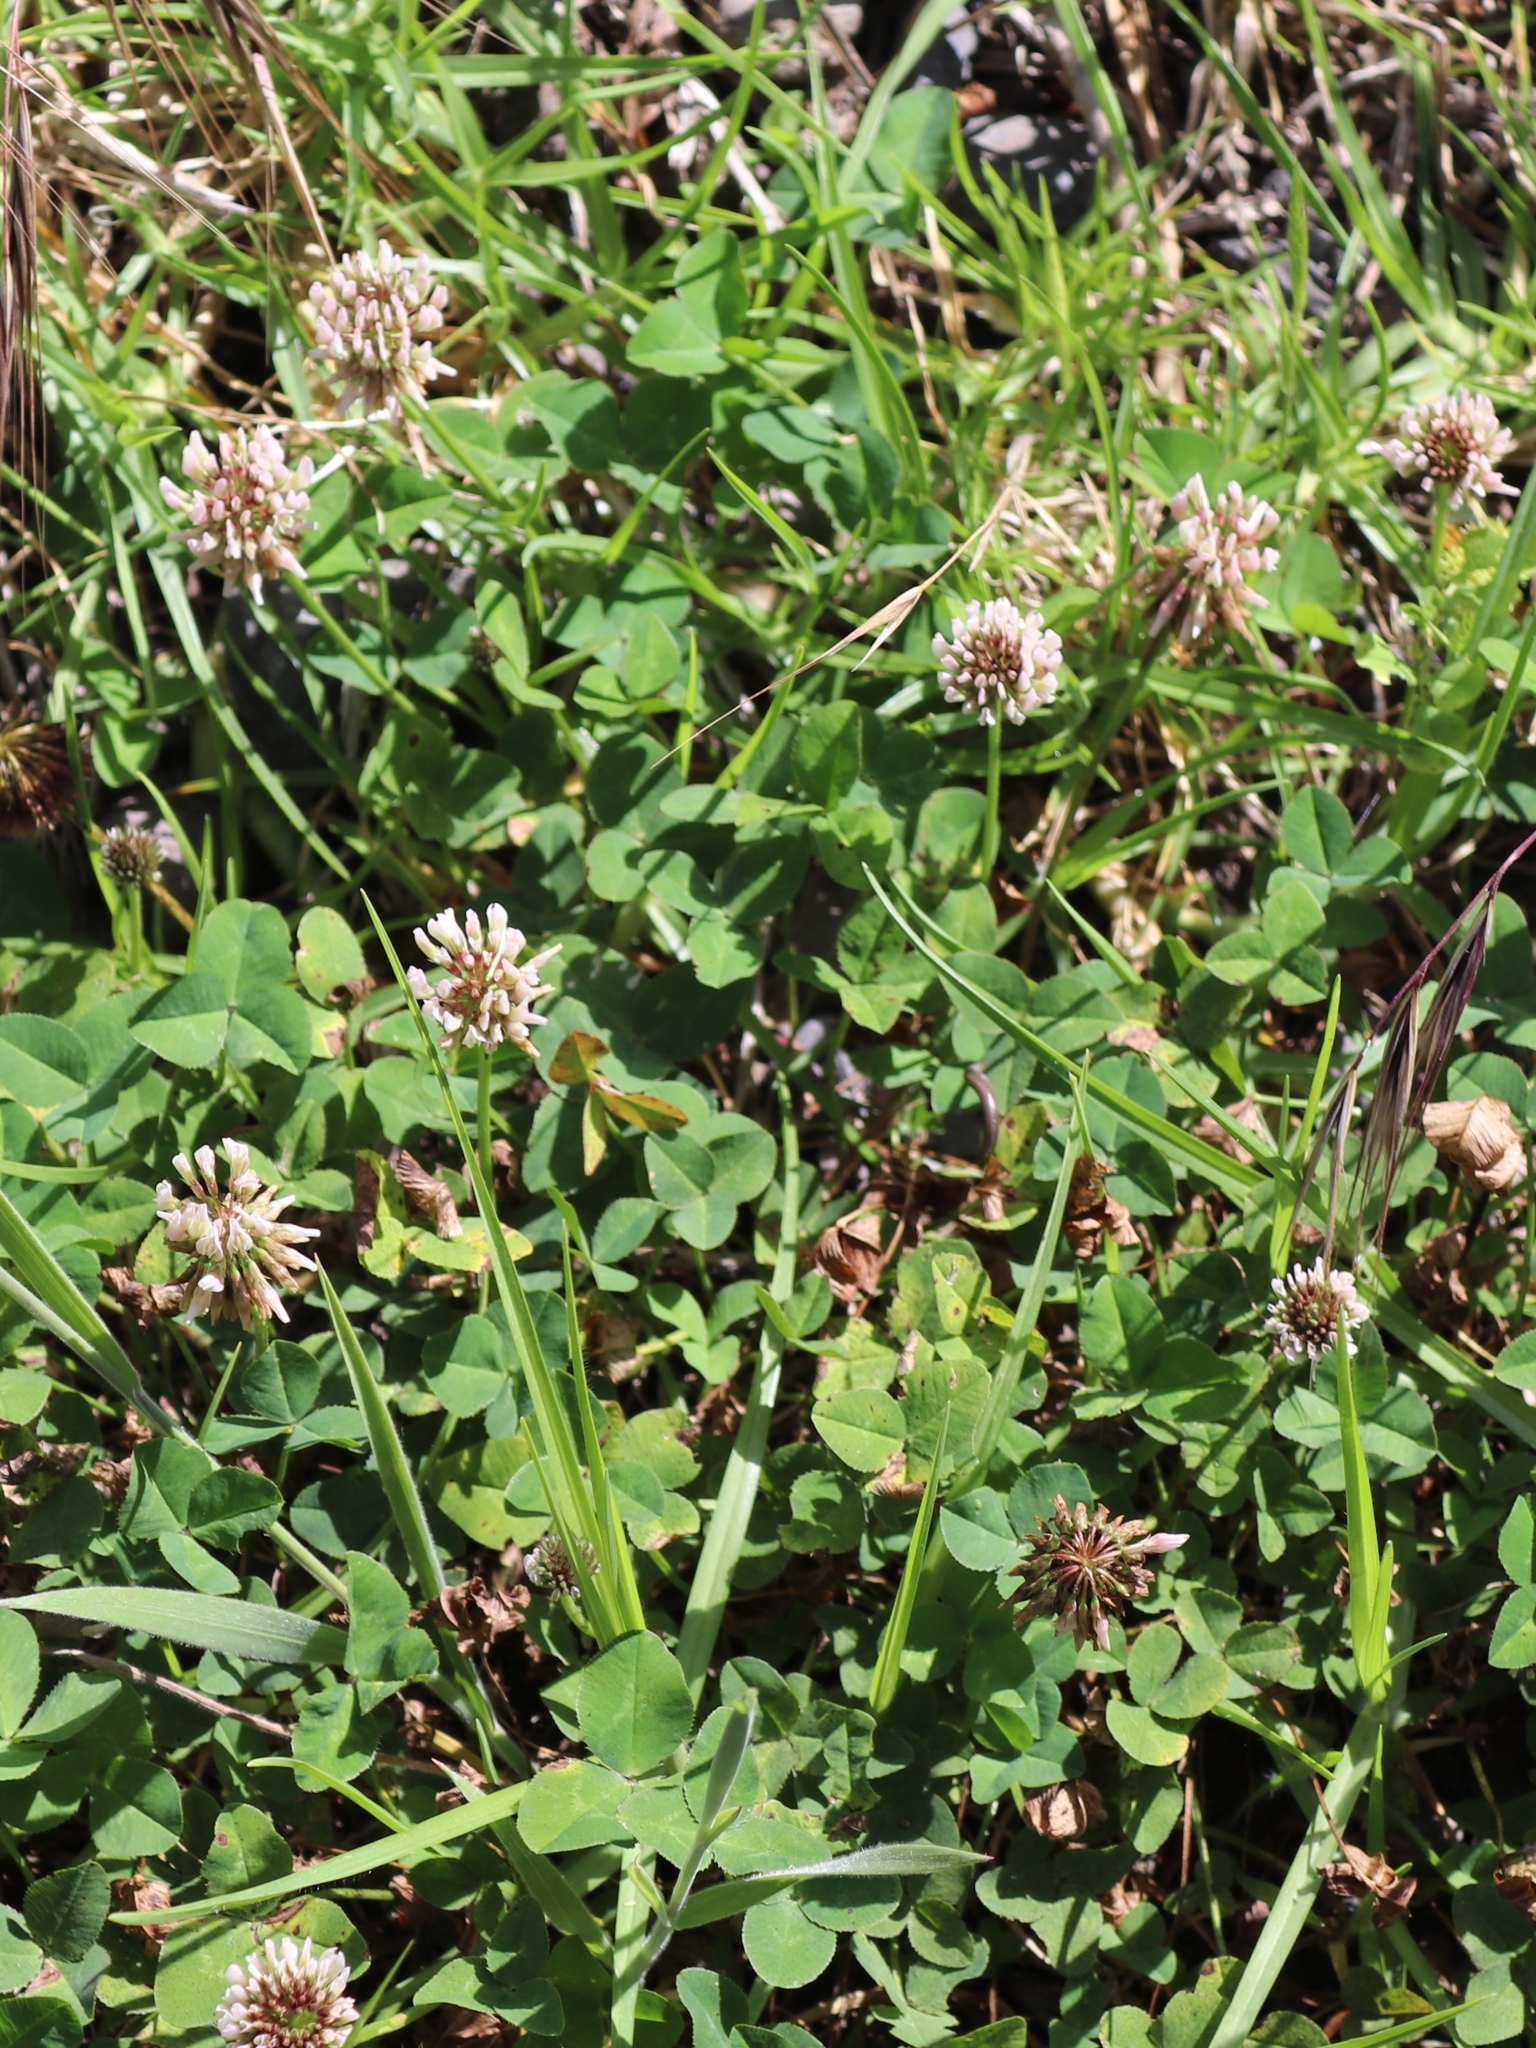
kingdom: Plantae
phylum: Tracheophyta
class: Magnoliopsida
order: Fabales
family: Fabaceae
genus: Trifolium
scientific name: Trifolium repens
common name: White clover
